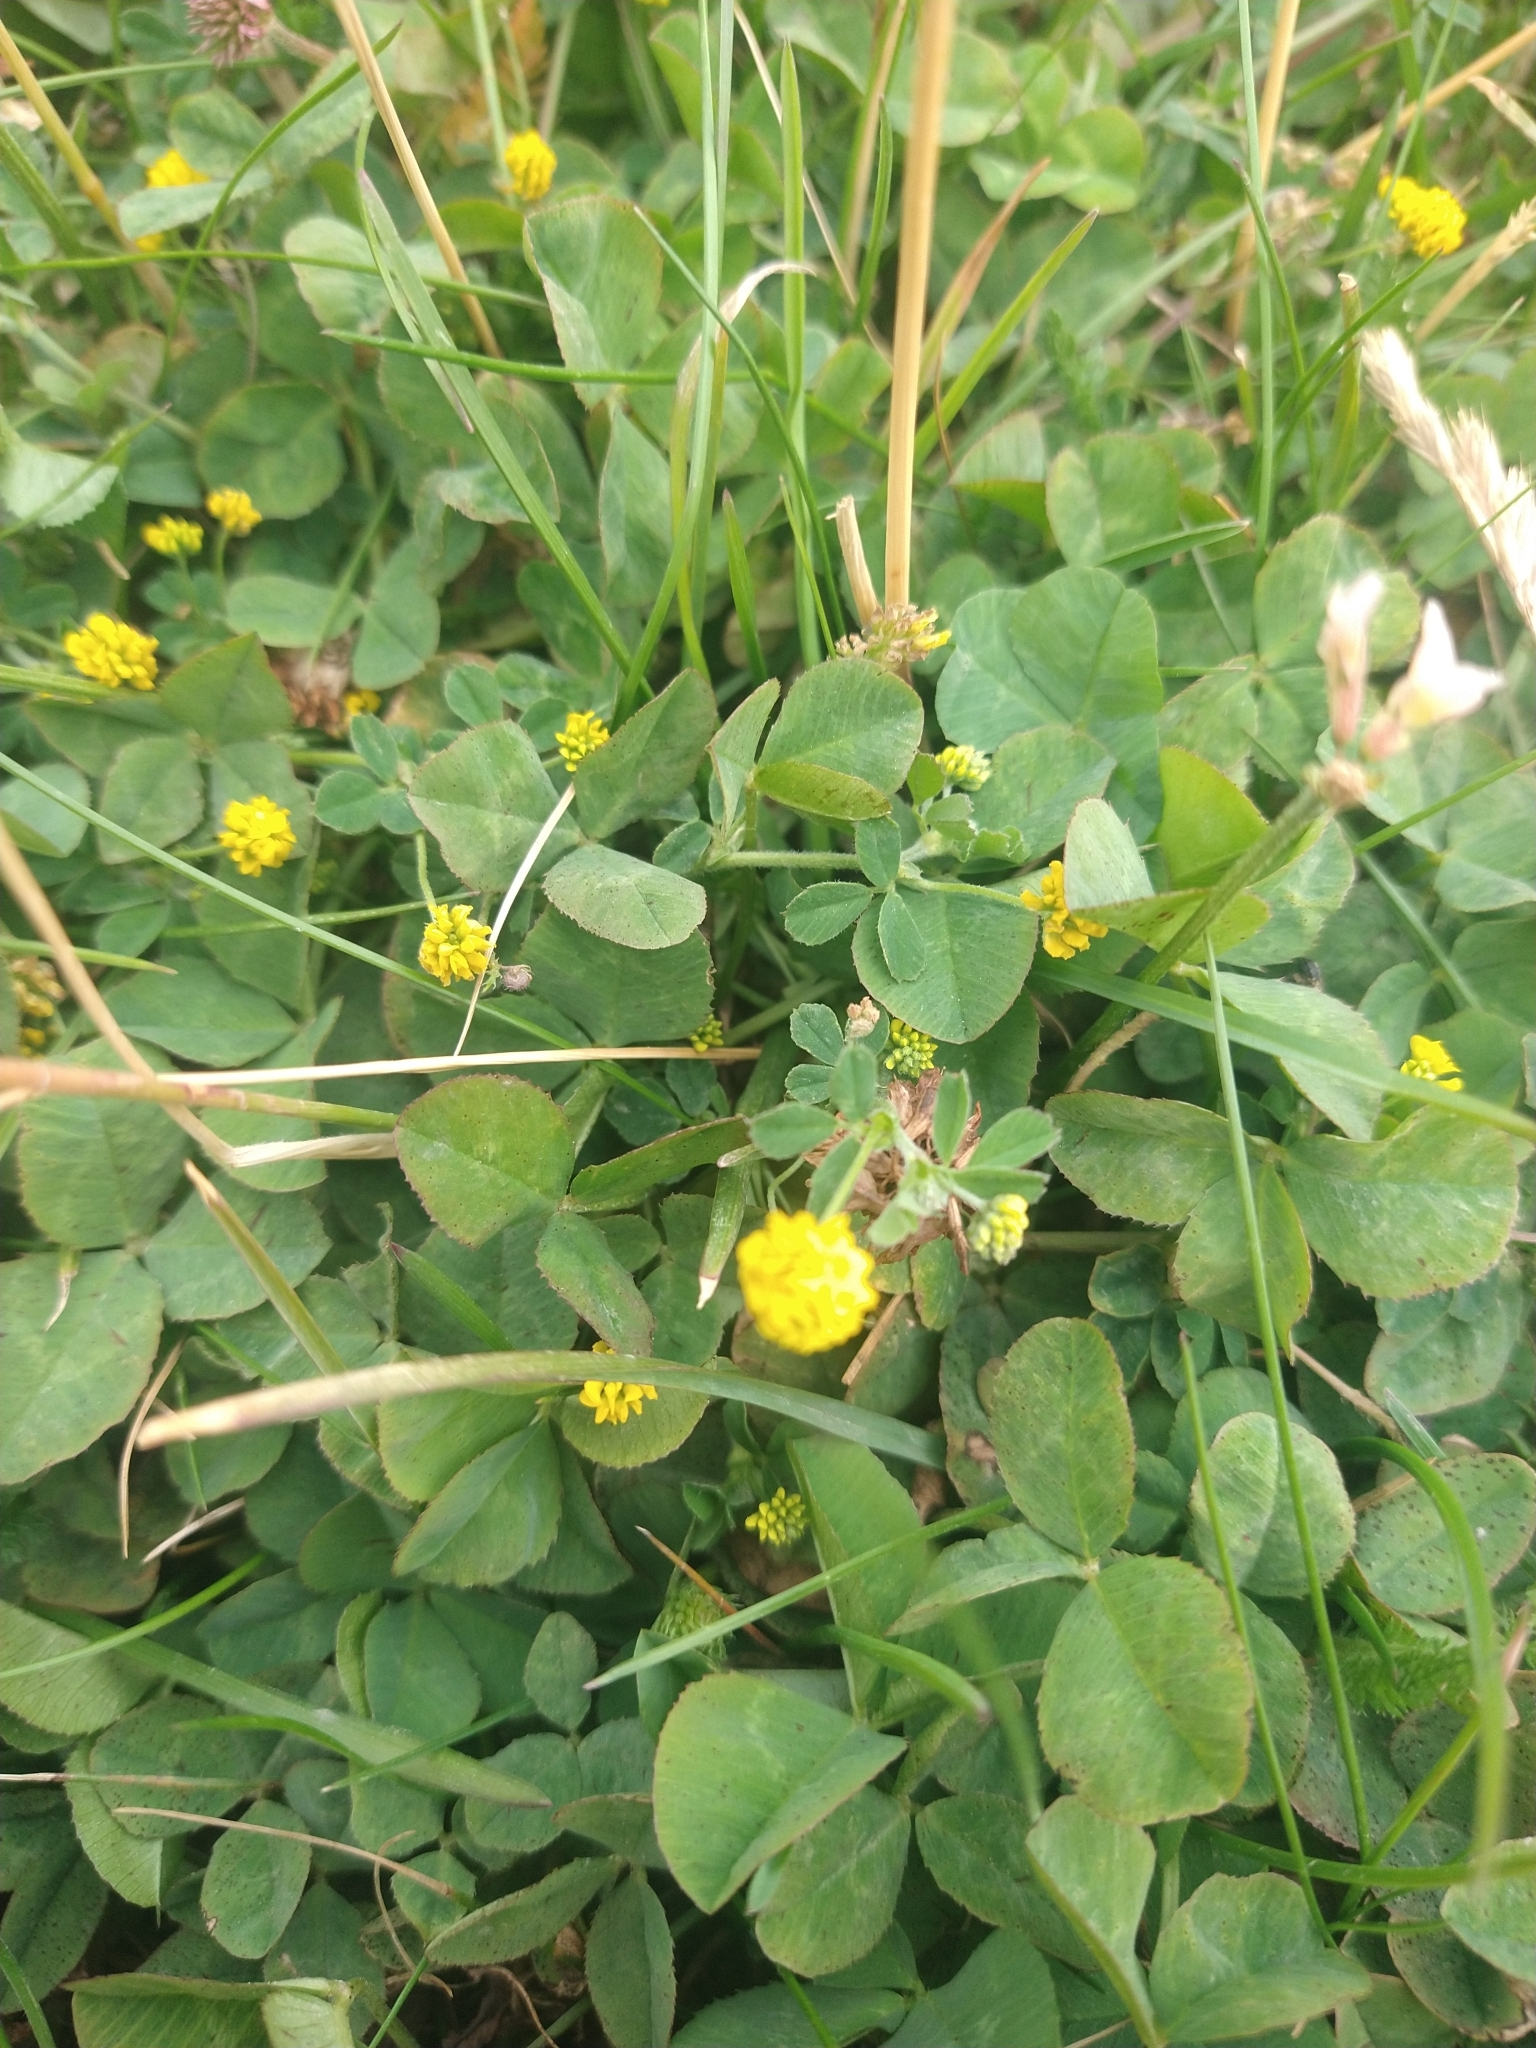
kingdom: Plantae
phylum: Tracheophyta
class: Magnoliopsida
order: Fabales
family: Fabaceae
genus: Medicago
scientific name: Medicago lupulina
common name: Black medick
